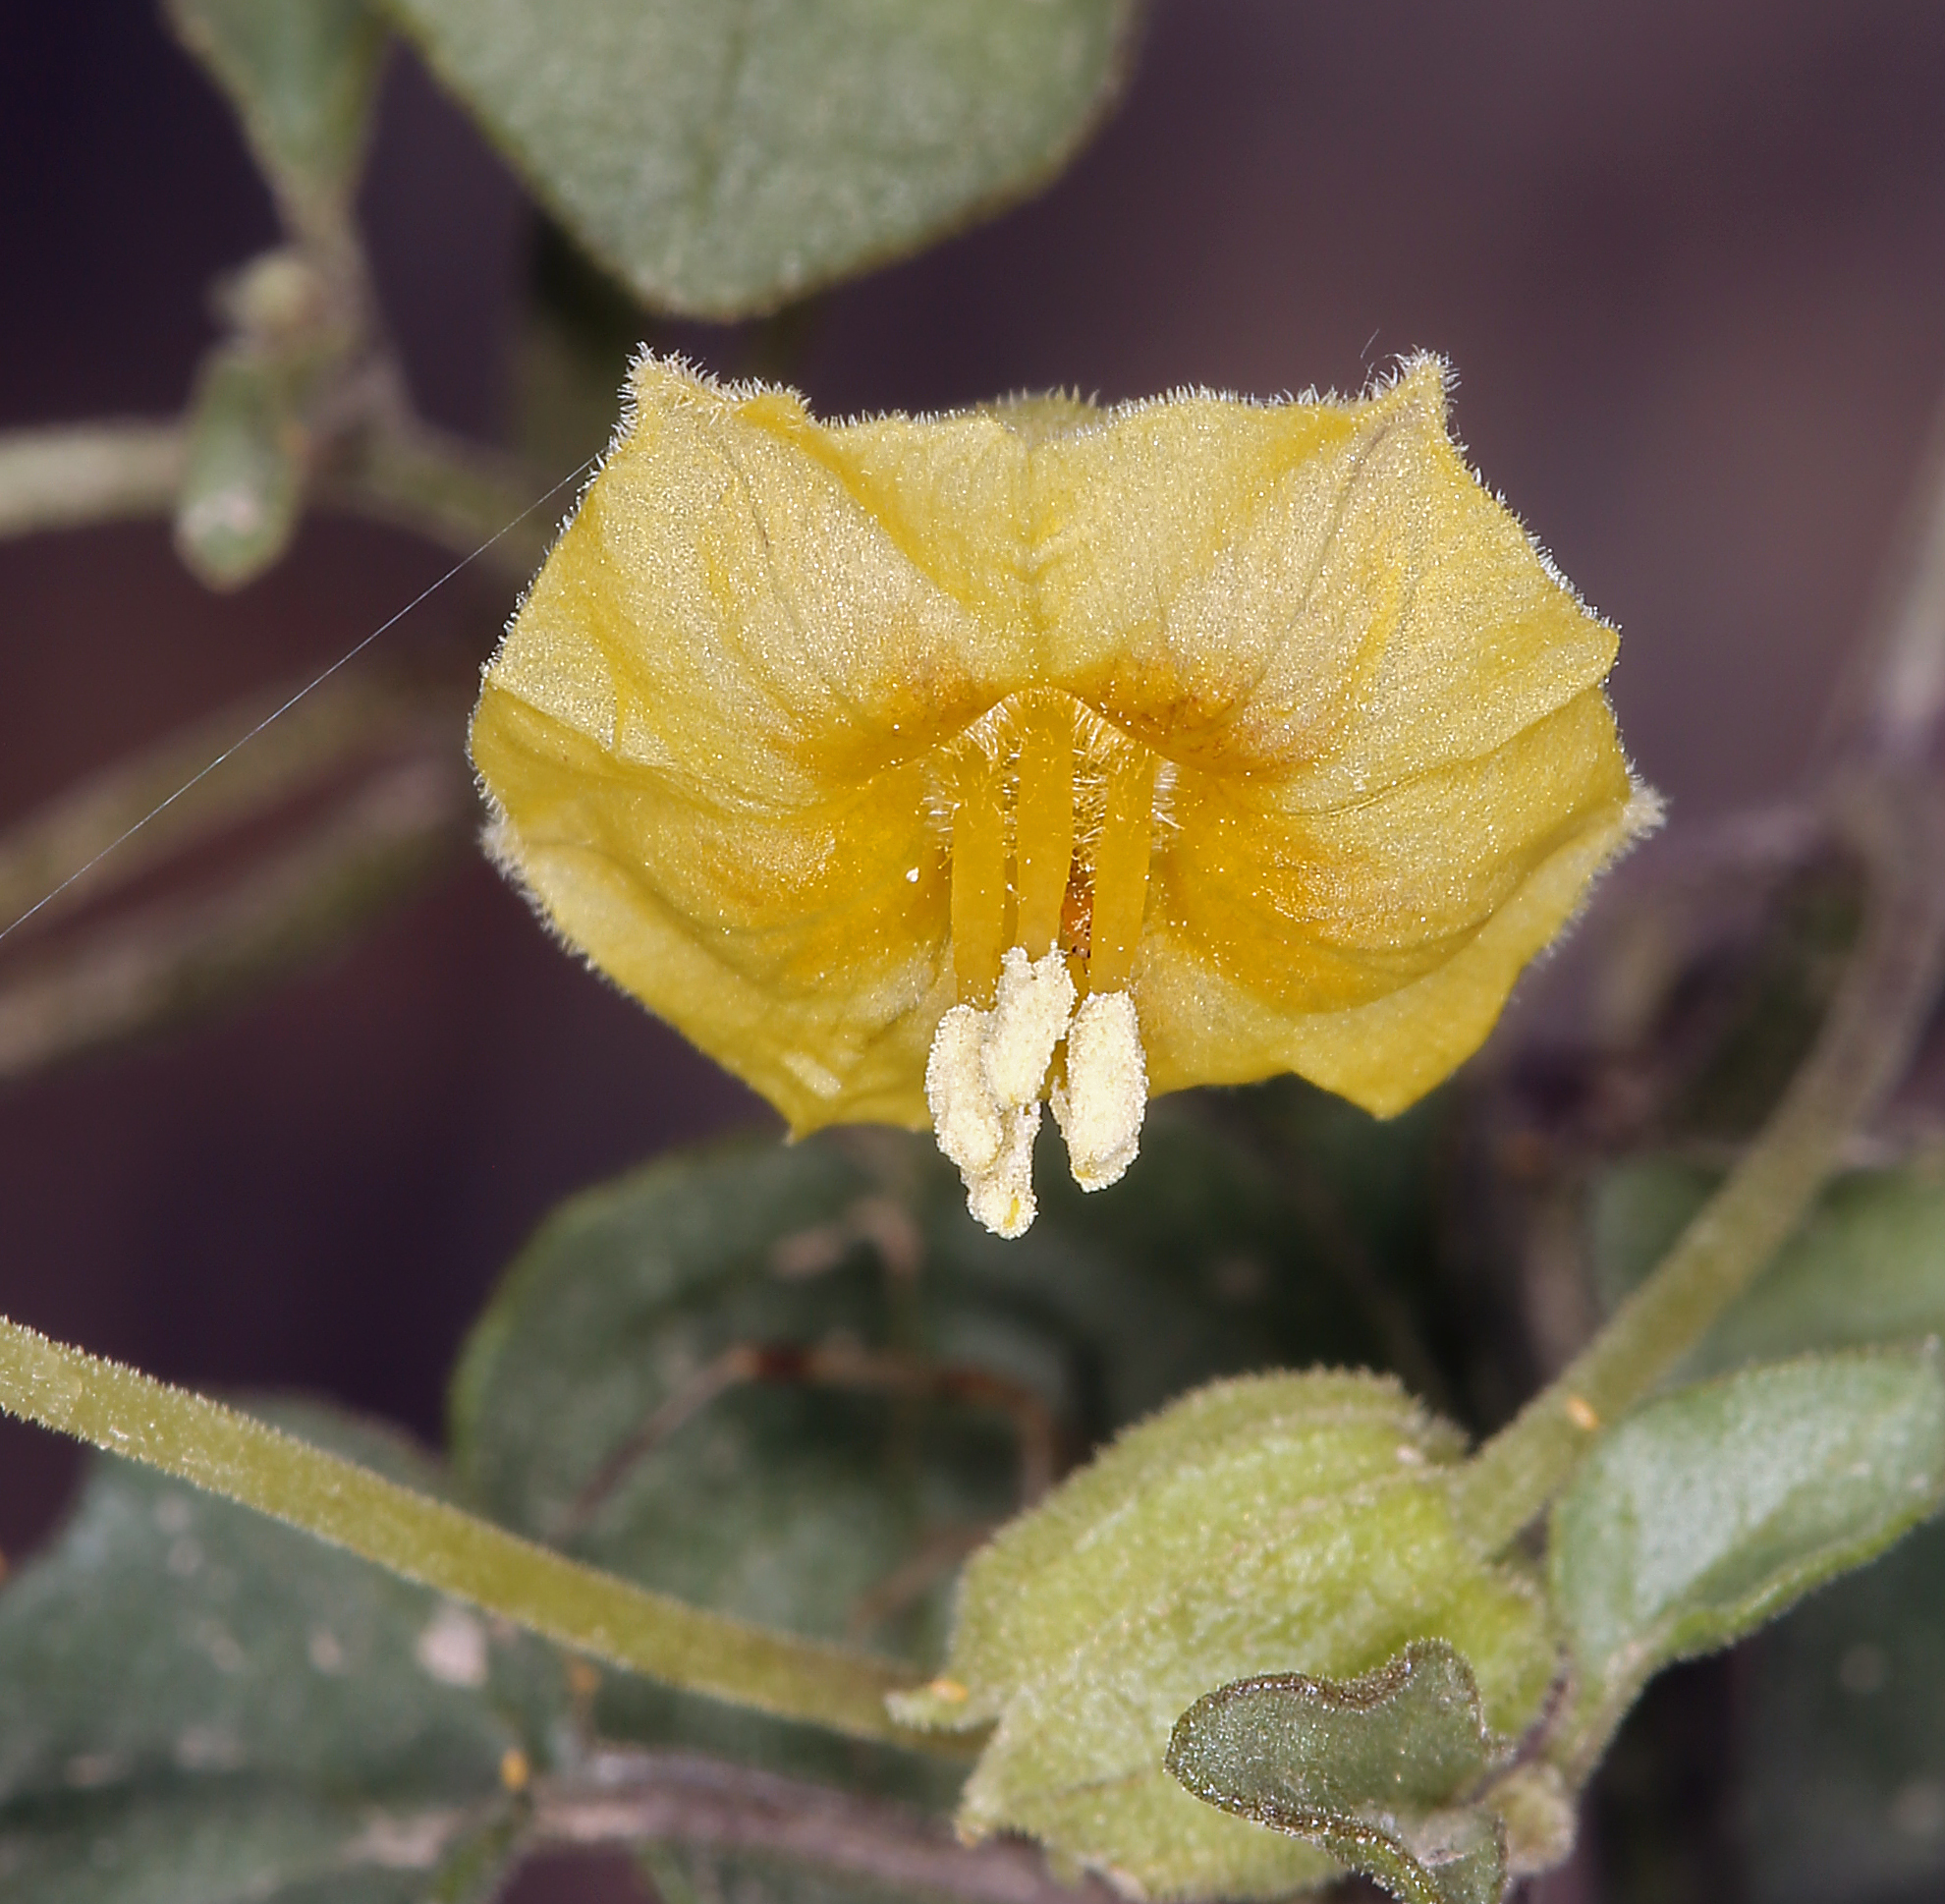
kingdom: Plantae
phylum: Tracheophyta
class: Magnoliopsida
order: Solanales
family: Solanaceae
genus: Physalis
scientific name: Physalis crassifolia
